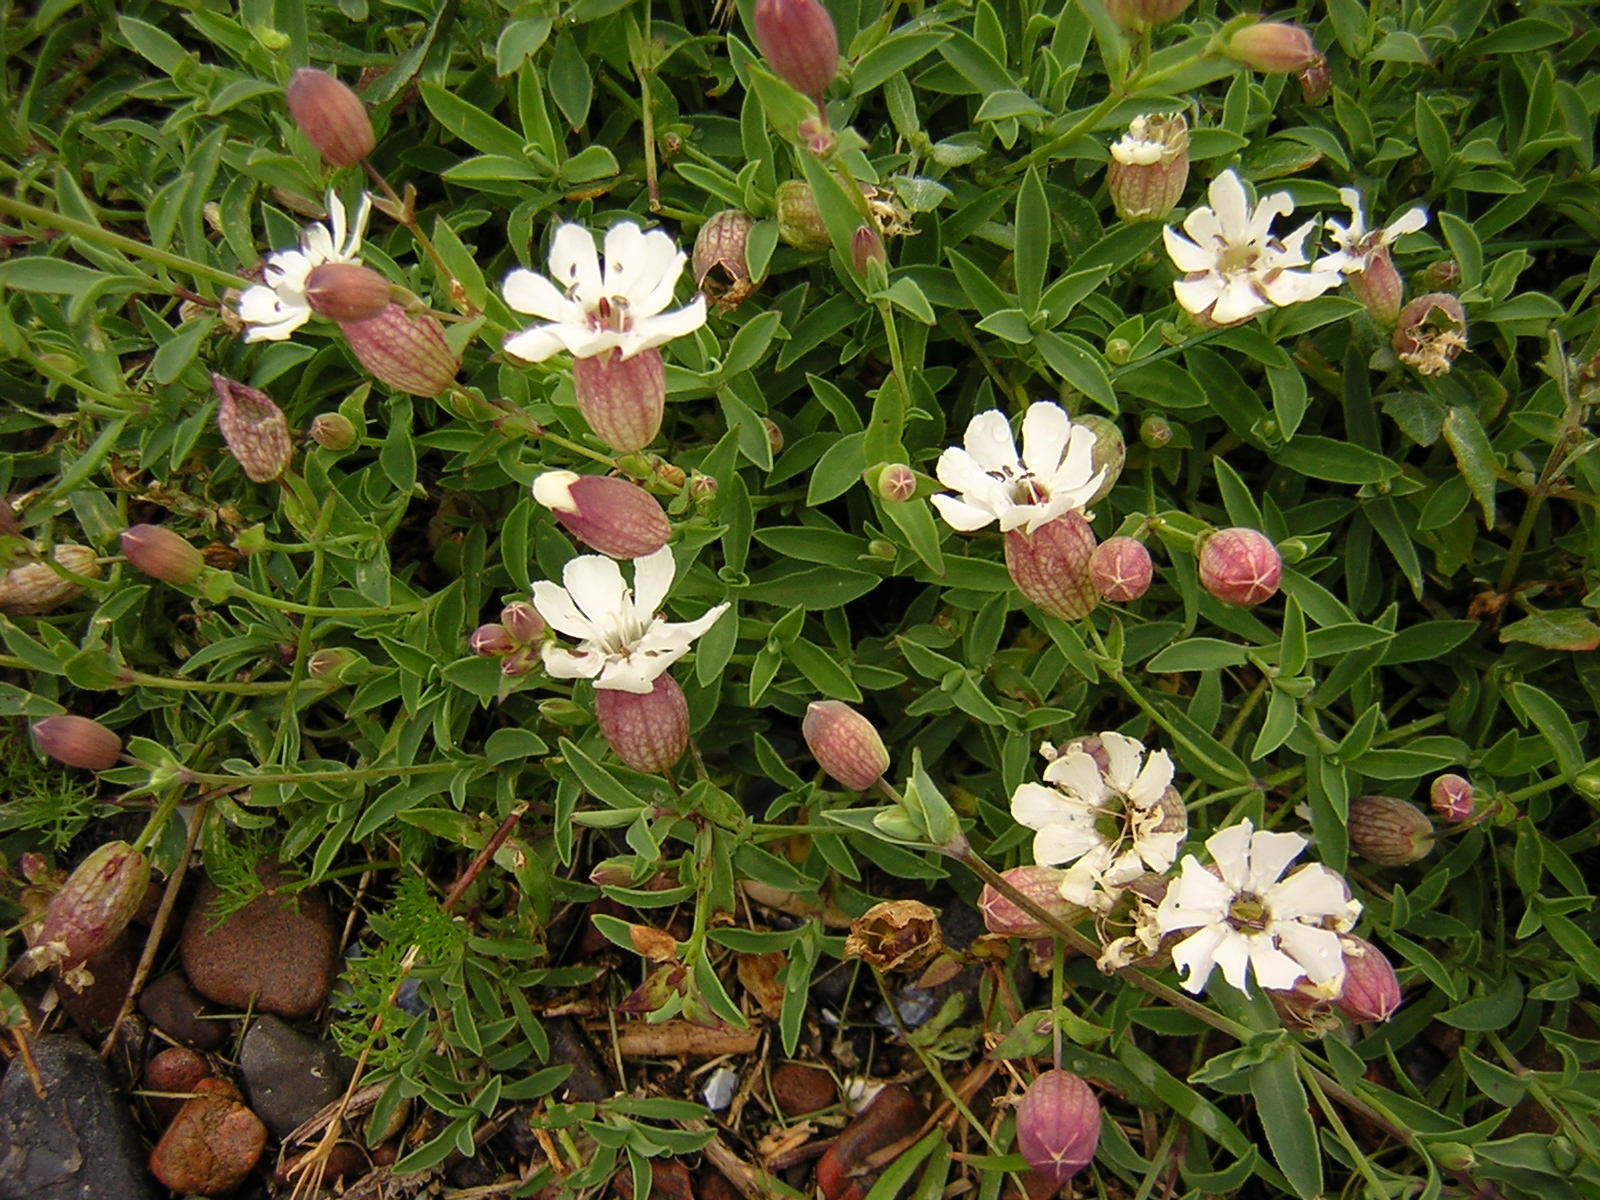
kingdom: Plantae
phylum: Tracheophyta
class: Magnoliopsida
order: Caryophyllales
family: Caryophyllaceae
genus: Silene
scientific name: Silene uniflora
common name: Sea campion
